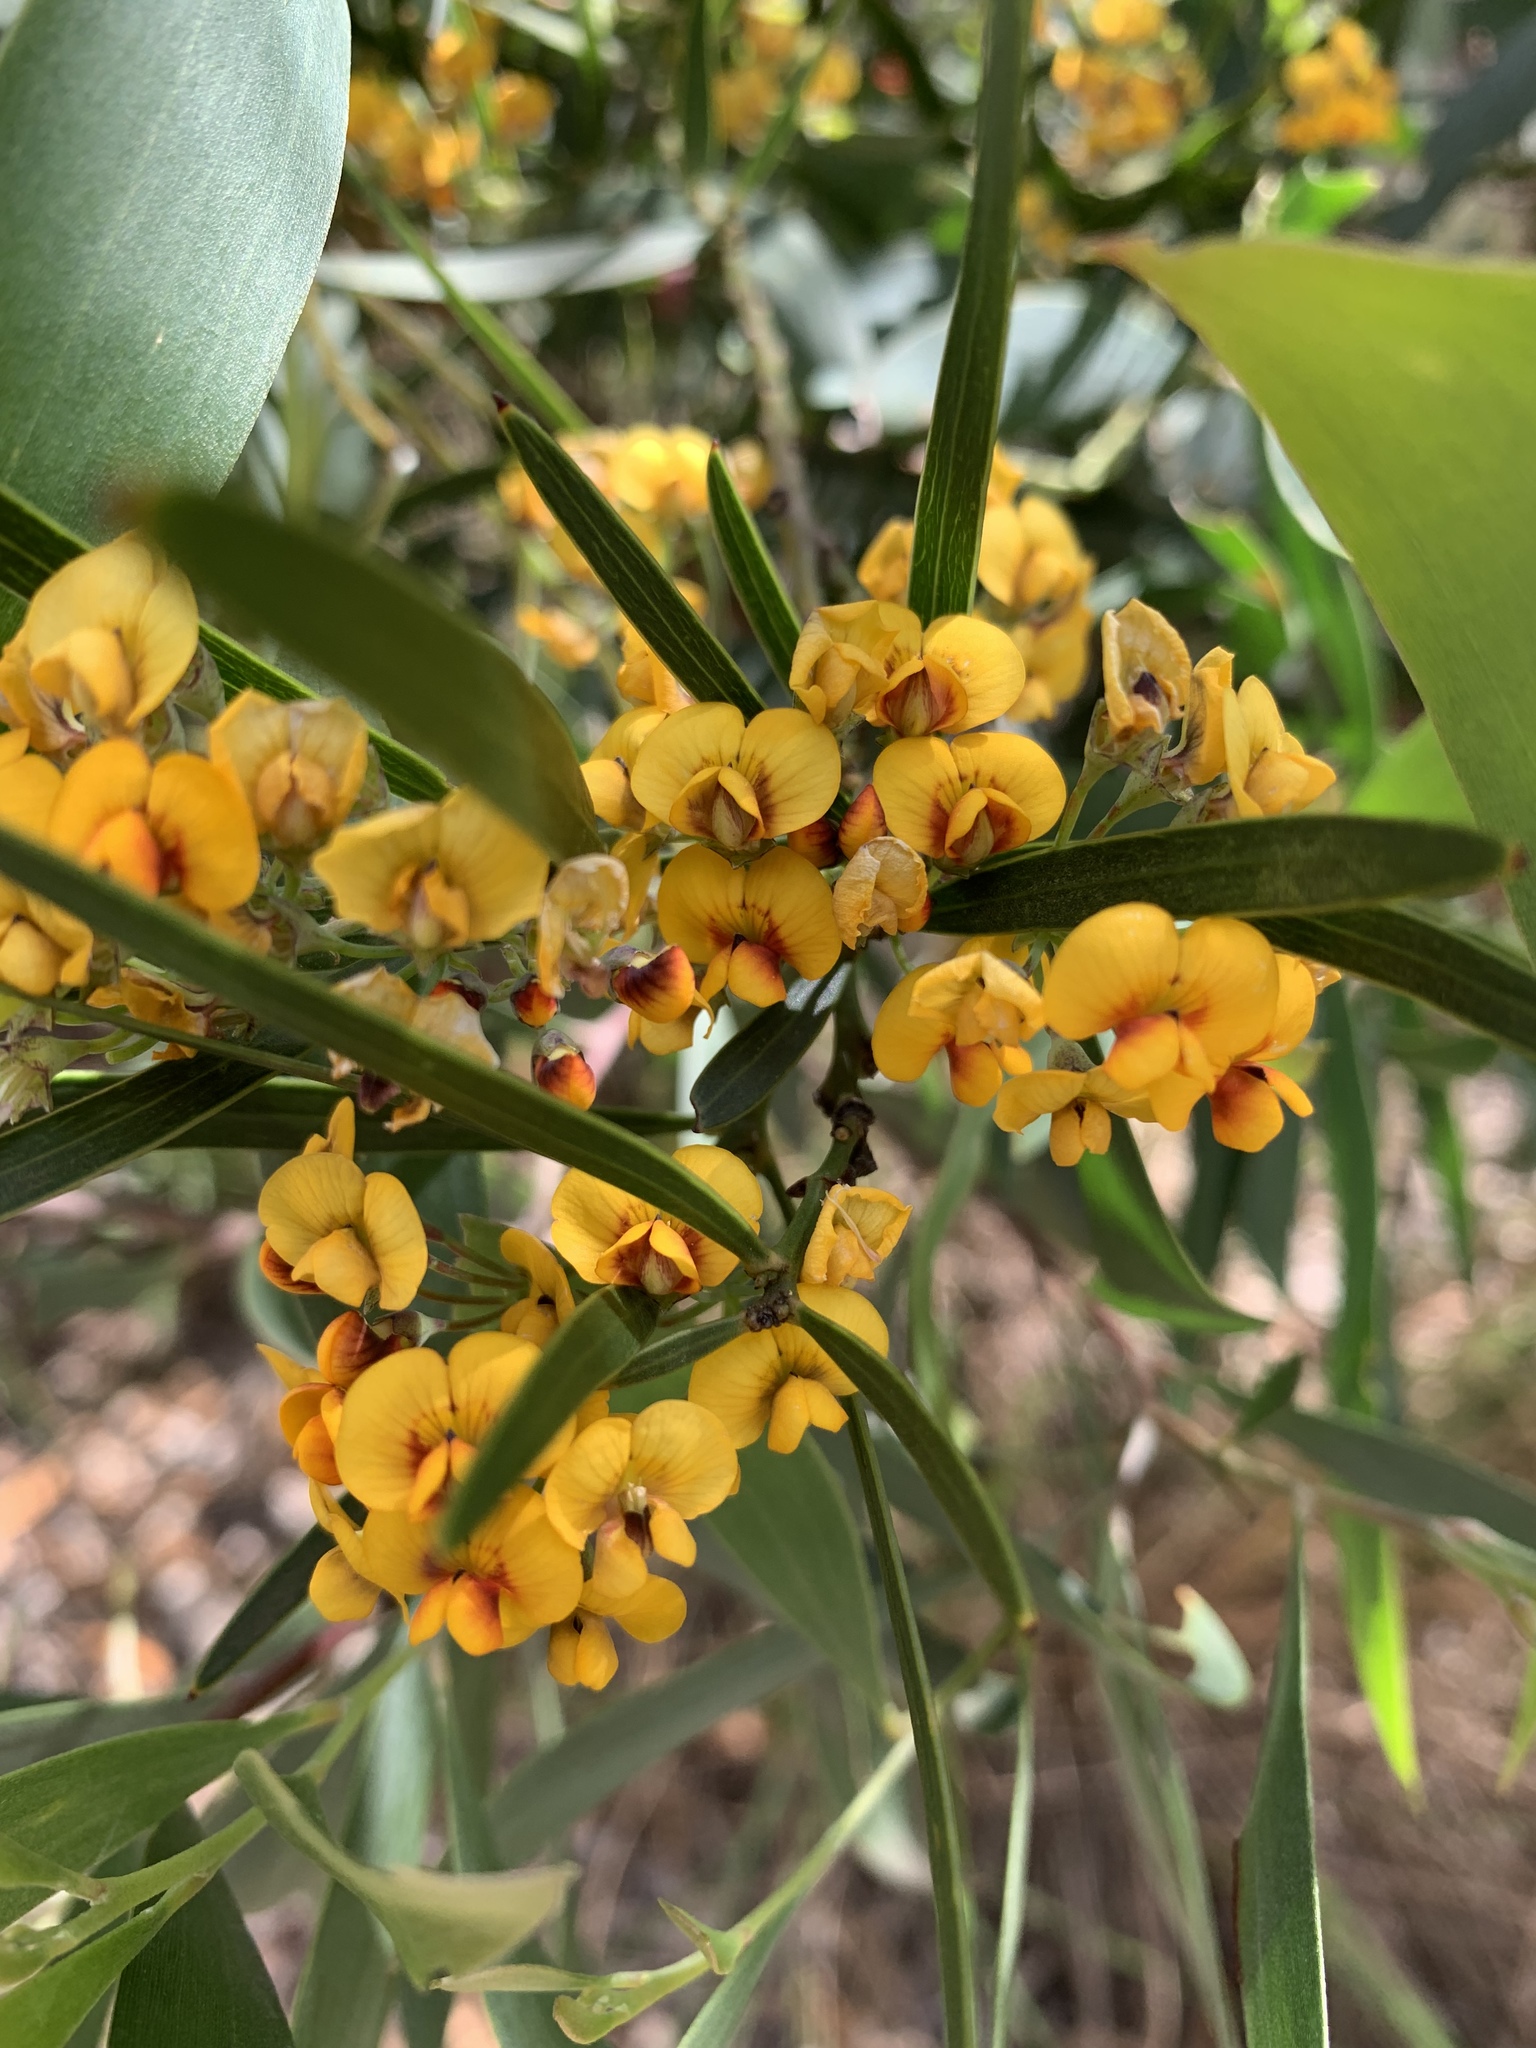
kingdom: Plantae
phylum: Tracheophyta
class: Magnoliopsida
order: Fabales
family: Fabaceae
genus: Daviesia
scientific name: Daviesia mimosoides
